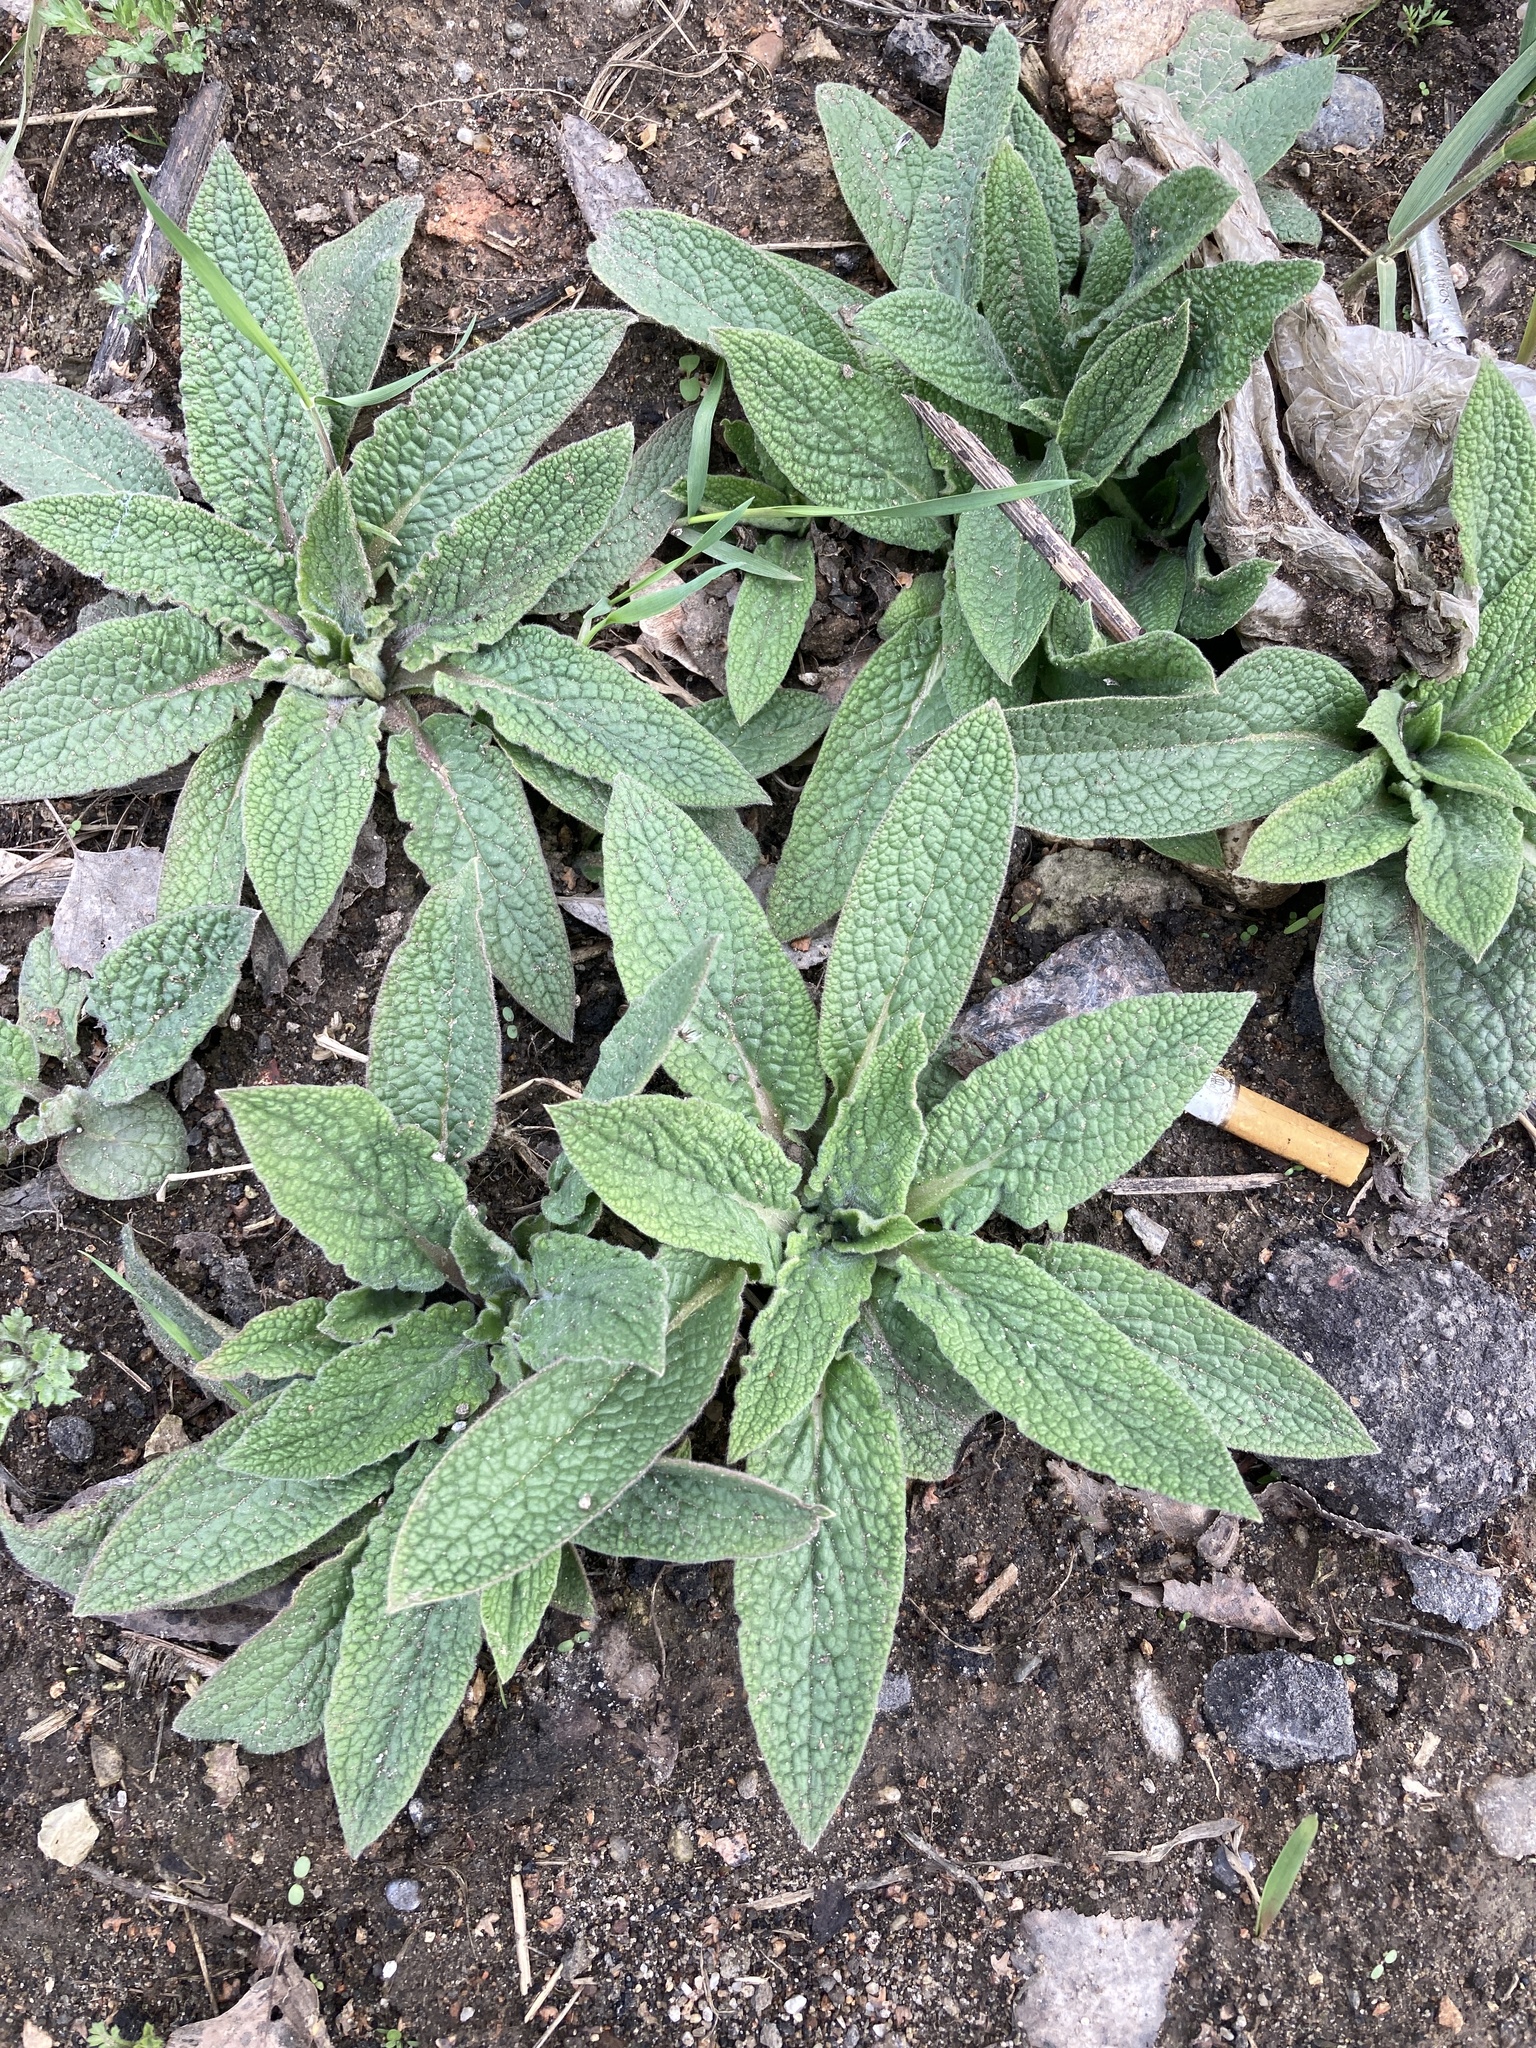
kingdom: Plantae
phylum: Tracheophyta
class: Magnoliopsida
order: Boraginales
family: Boraginaceae
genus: Symphytum
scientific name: Symphytum caucasicum
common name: Caucasian comfrey
